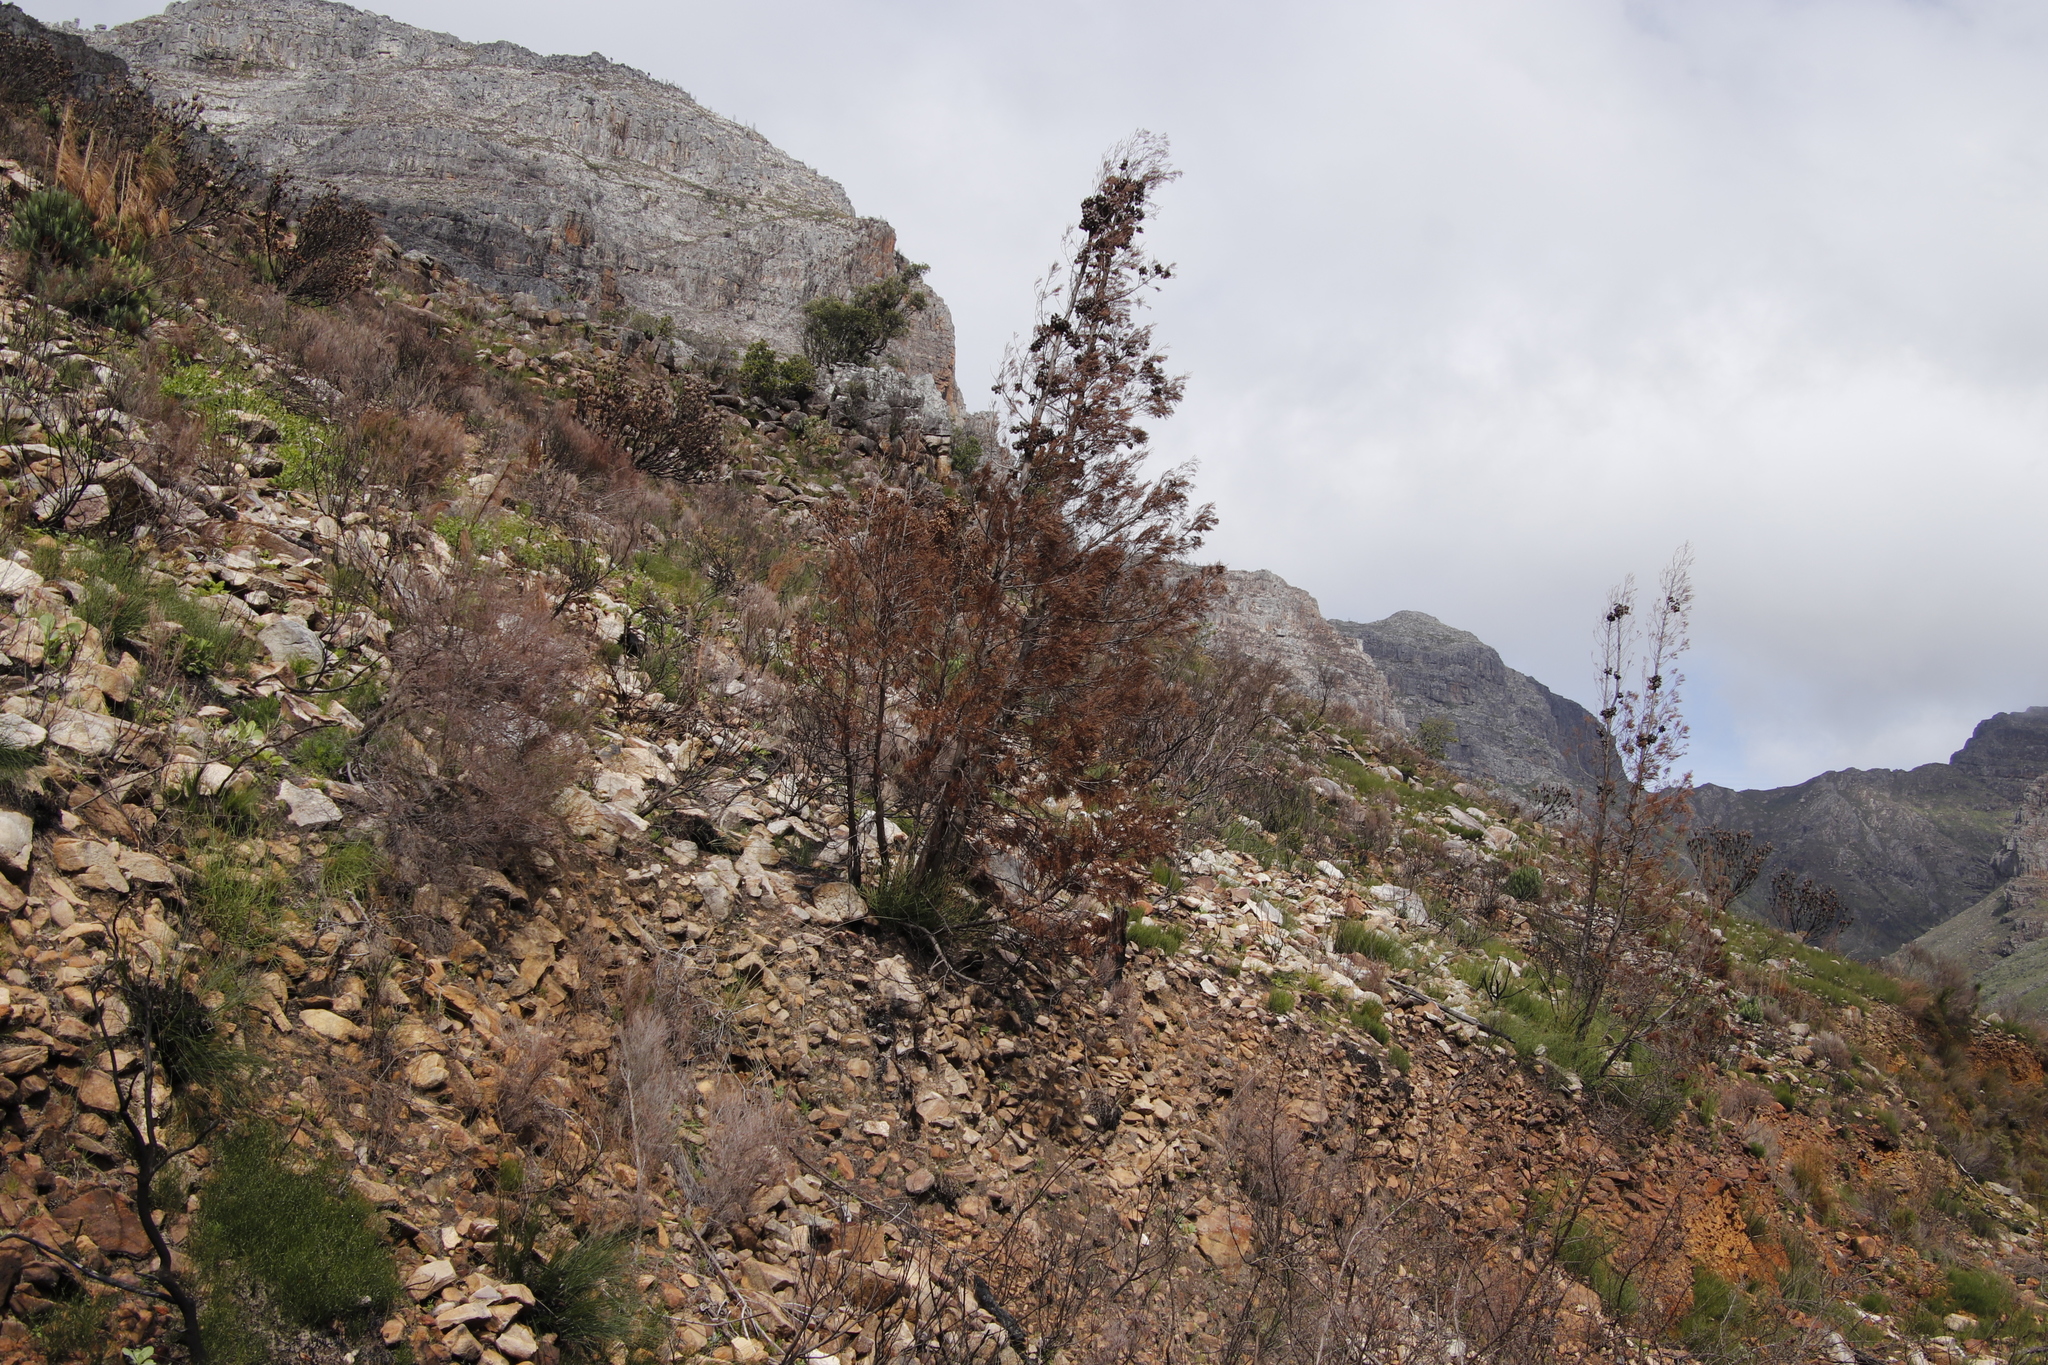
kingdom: Plantae
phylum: Tracheophyta
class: Pinopsida
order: Pinales
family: Cupressaceae
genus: Widdringtonia
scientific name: Widdringtonia nodiflora
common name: Cape cypress
